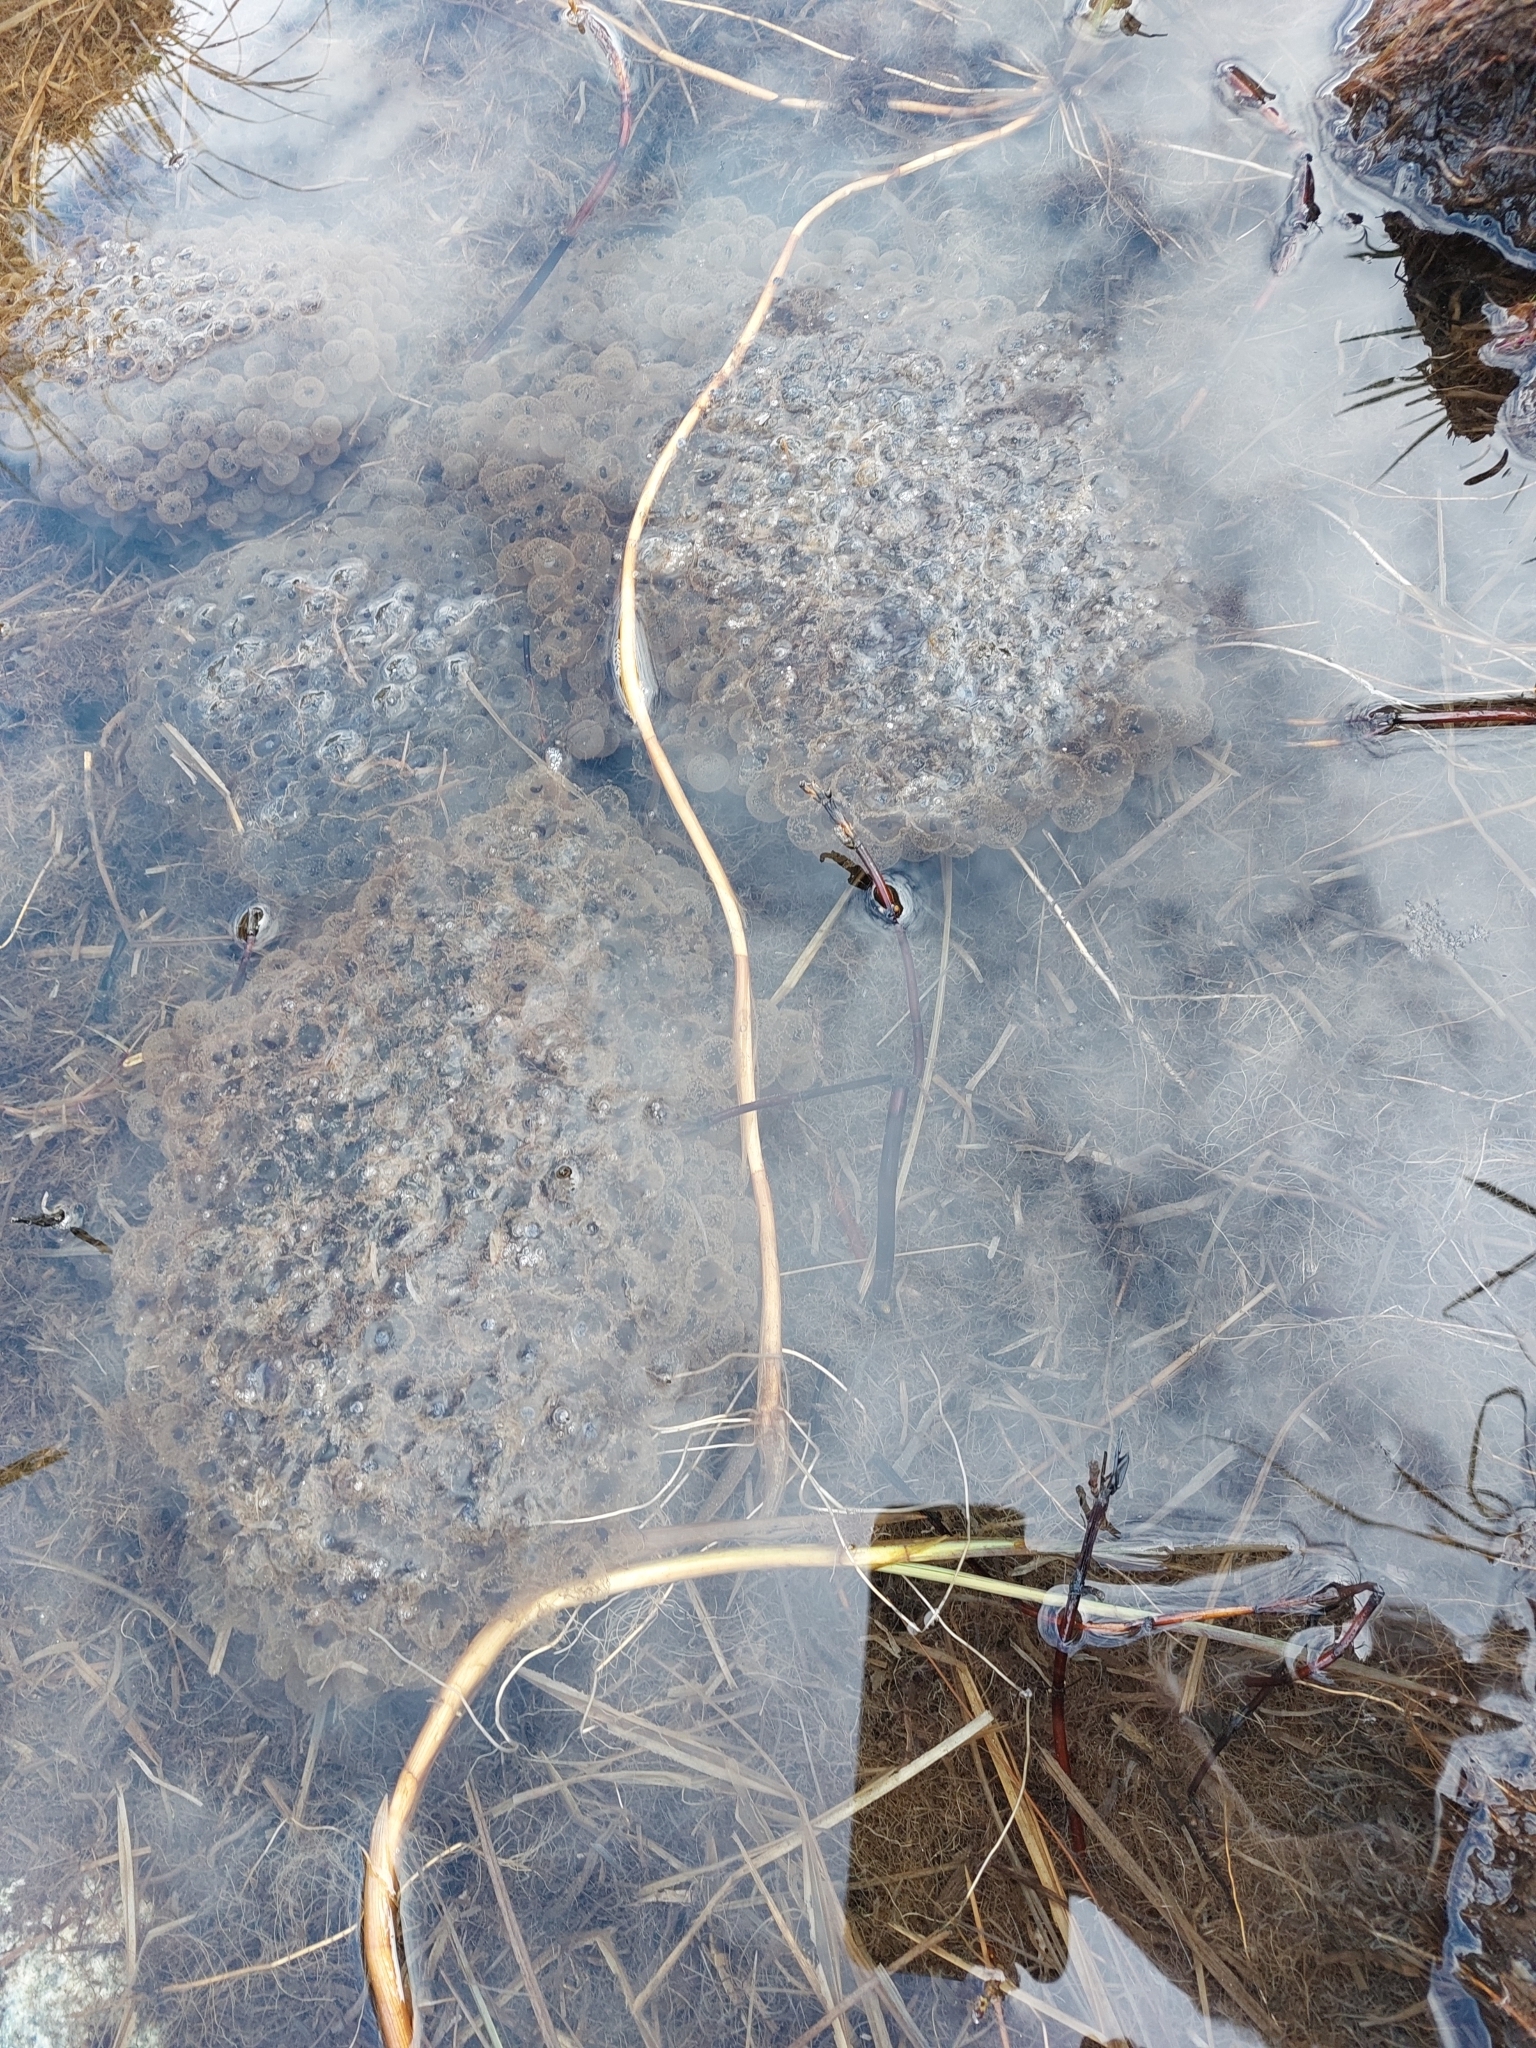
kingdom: Animalia
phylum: Chordata
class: Amphibia
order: Anura
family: Ranidae
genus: Rana
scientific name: Rana temporaria
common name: Common frog
